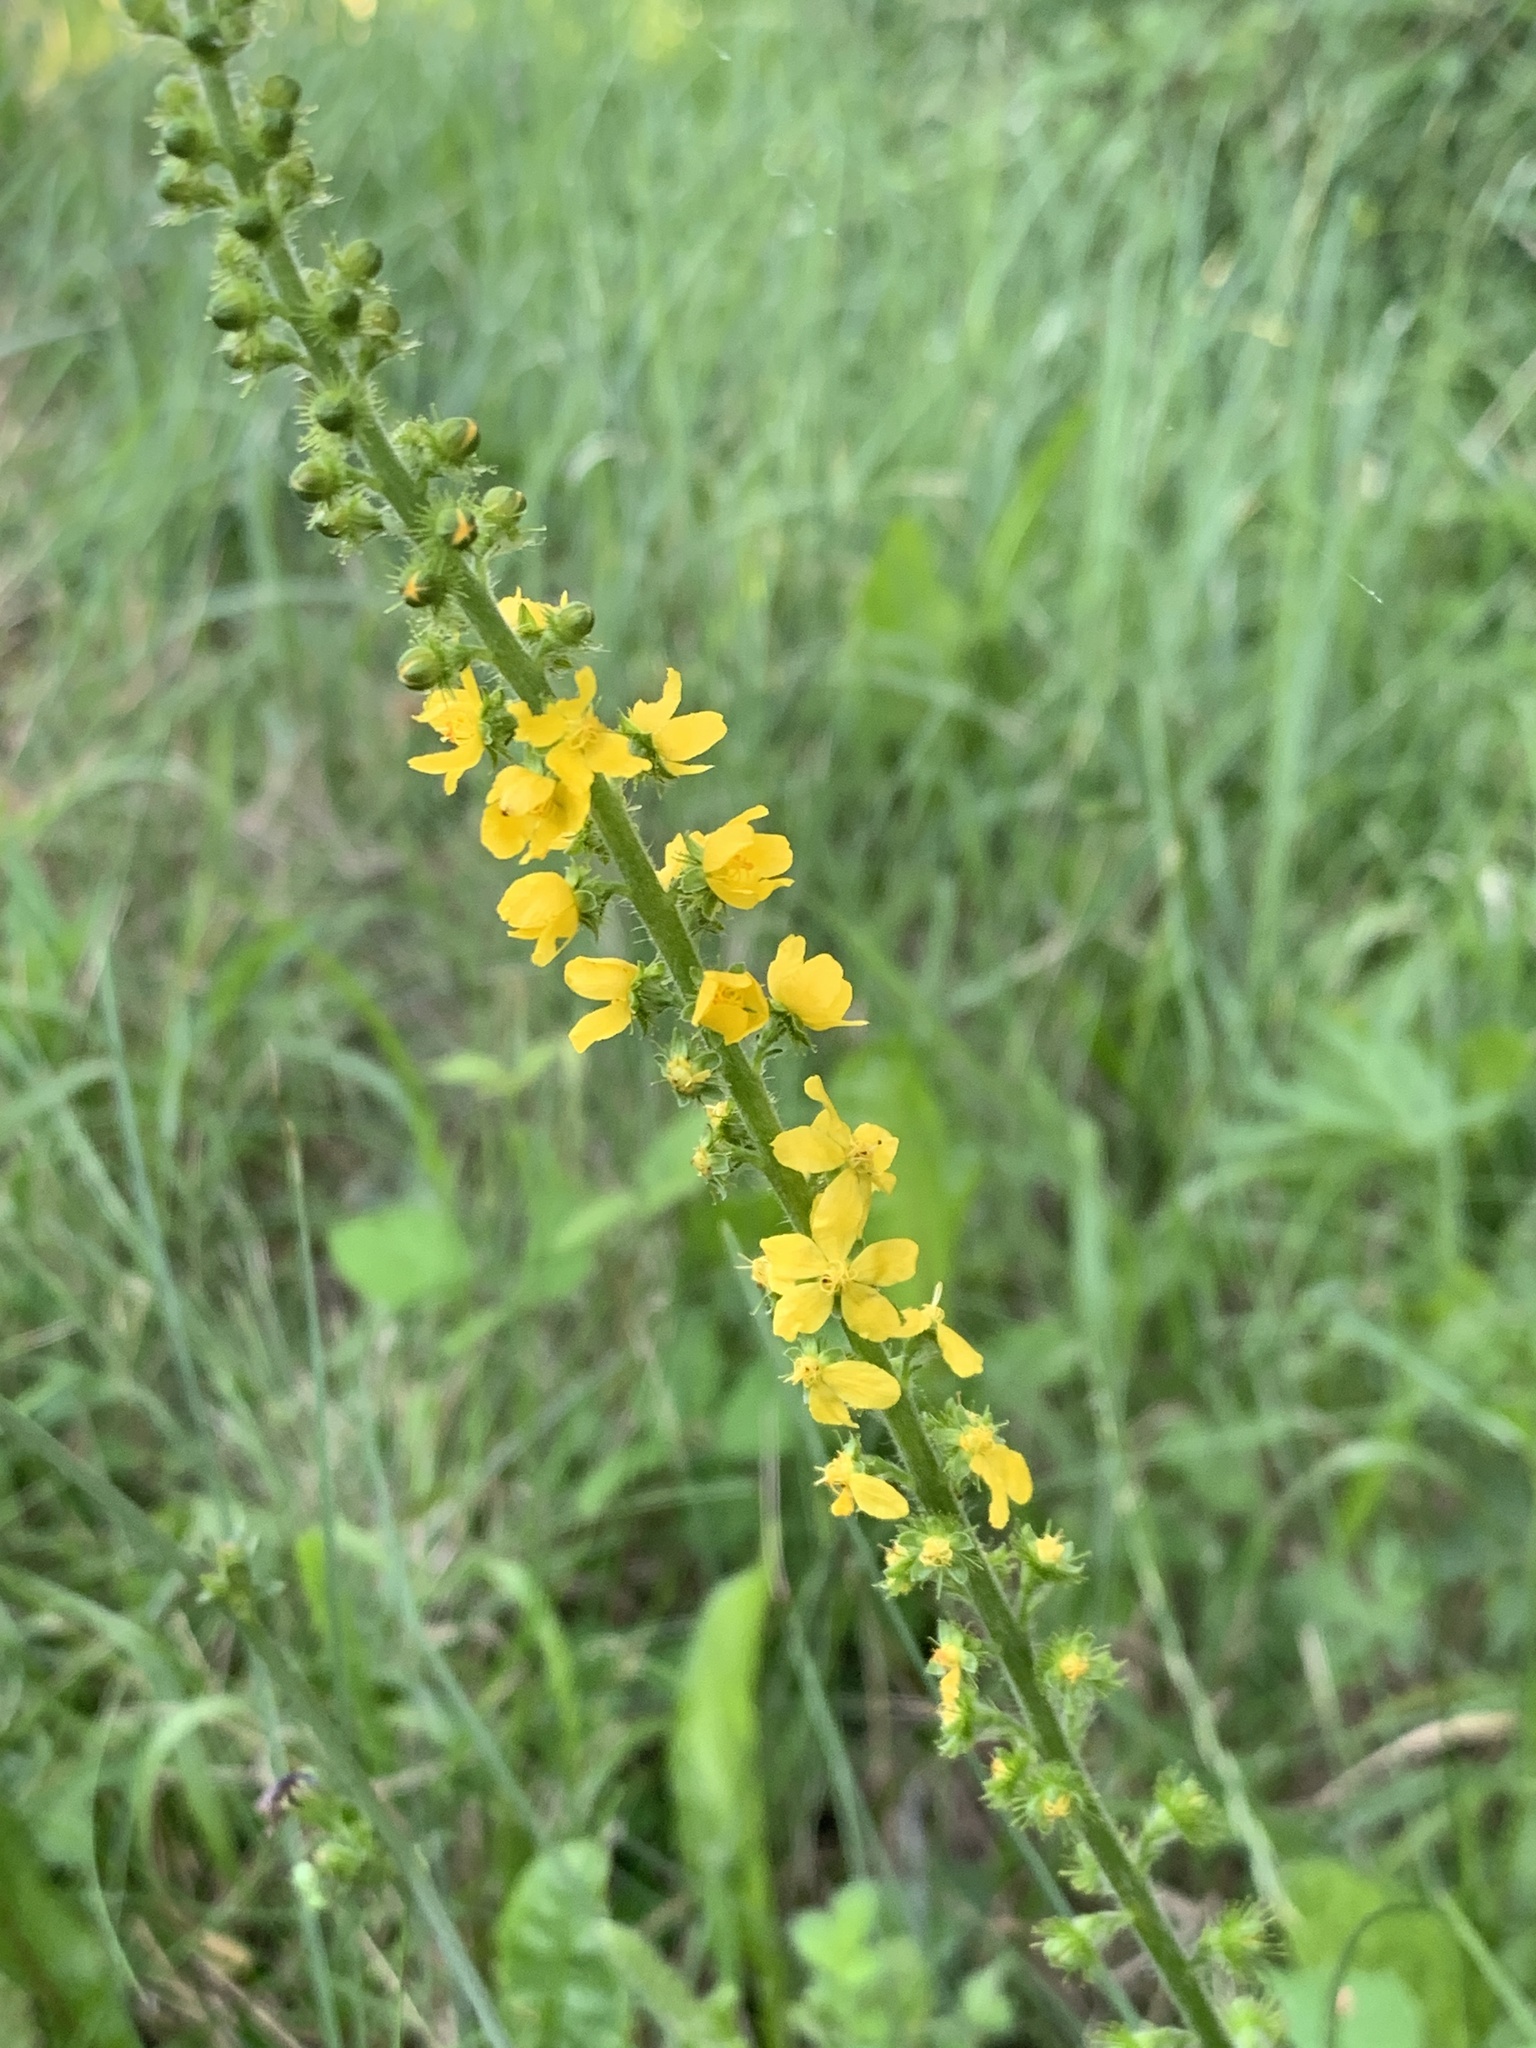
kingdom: Plantae
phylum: Tracheophyta
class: Magnoliopsida
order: Rosales
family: Rosaceae
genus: Agrimonia
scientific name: Agrimonia eupatoria
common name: Agrimony
